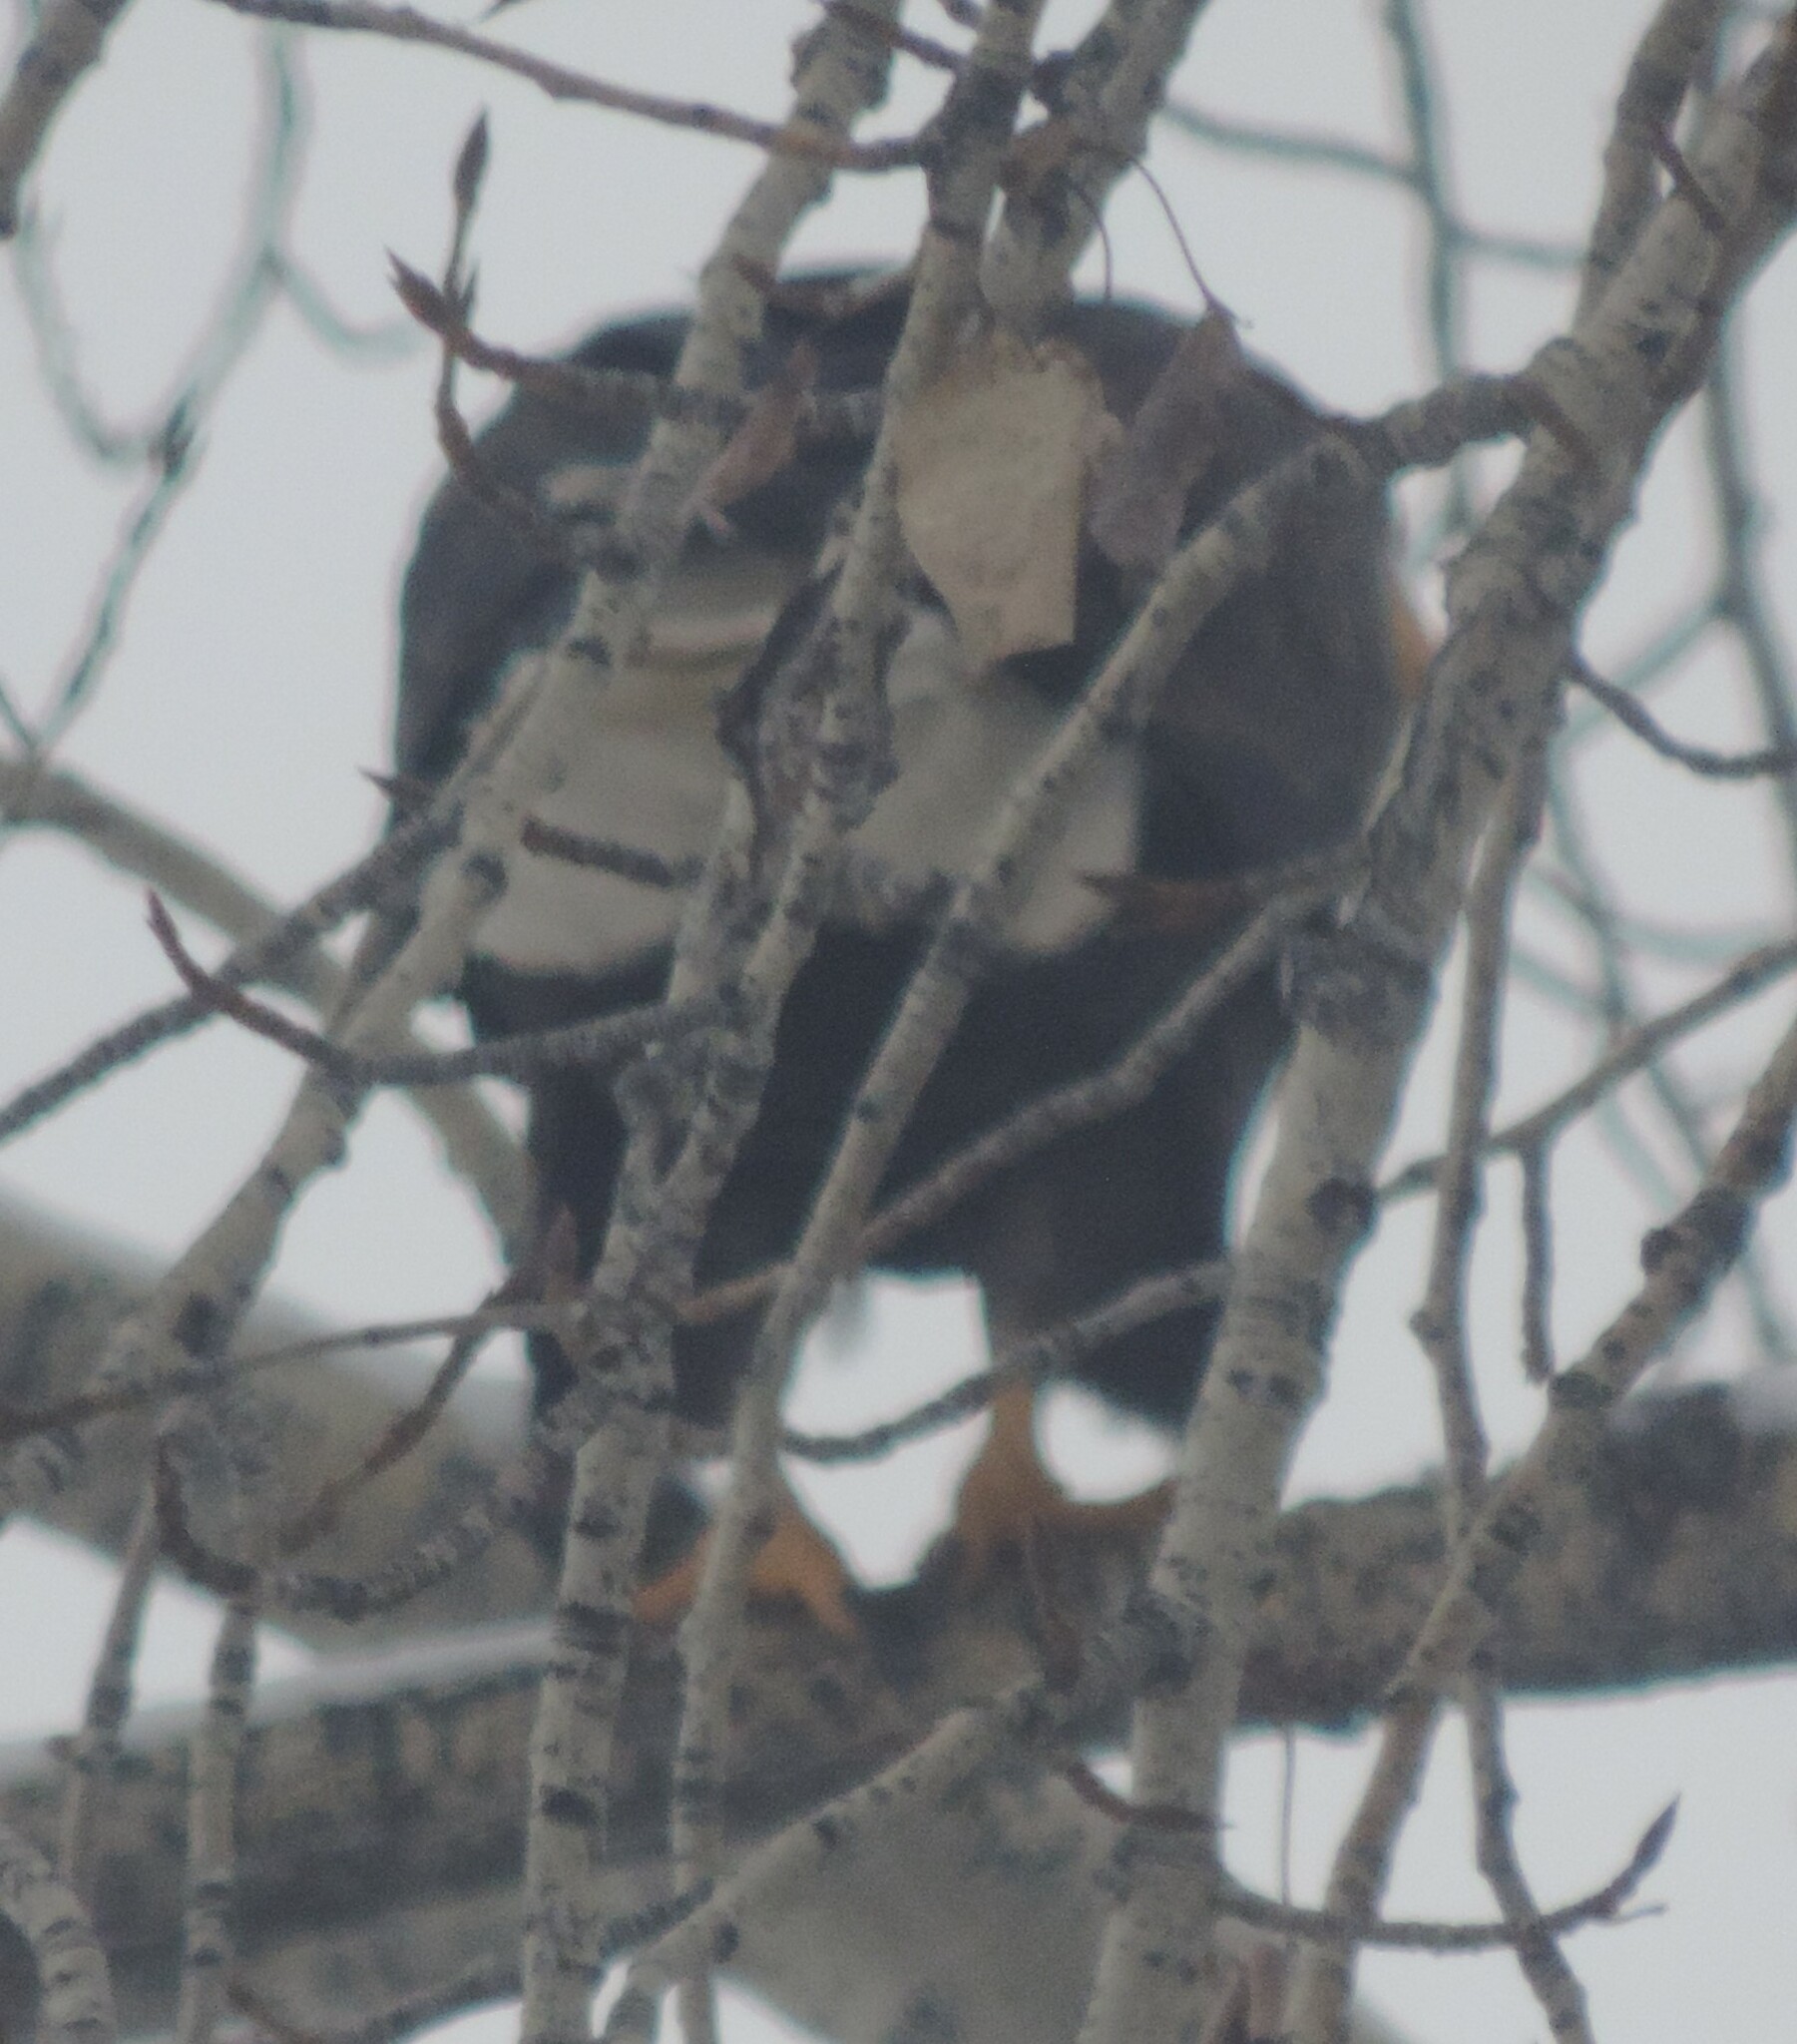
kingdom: Animalia
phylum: Chordata
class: Aves
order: Accipitriformes
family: Accipitridae
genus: Haliaeetus
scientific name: Haliaeetus leucocephalus
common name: Bald eagle
